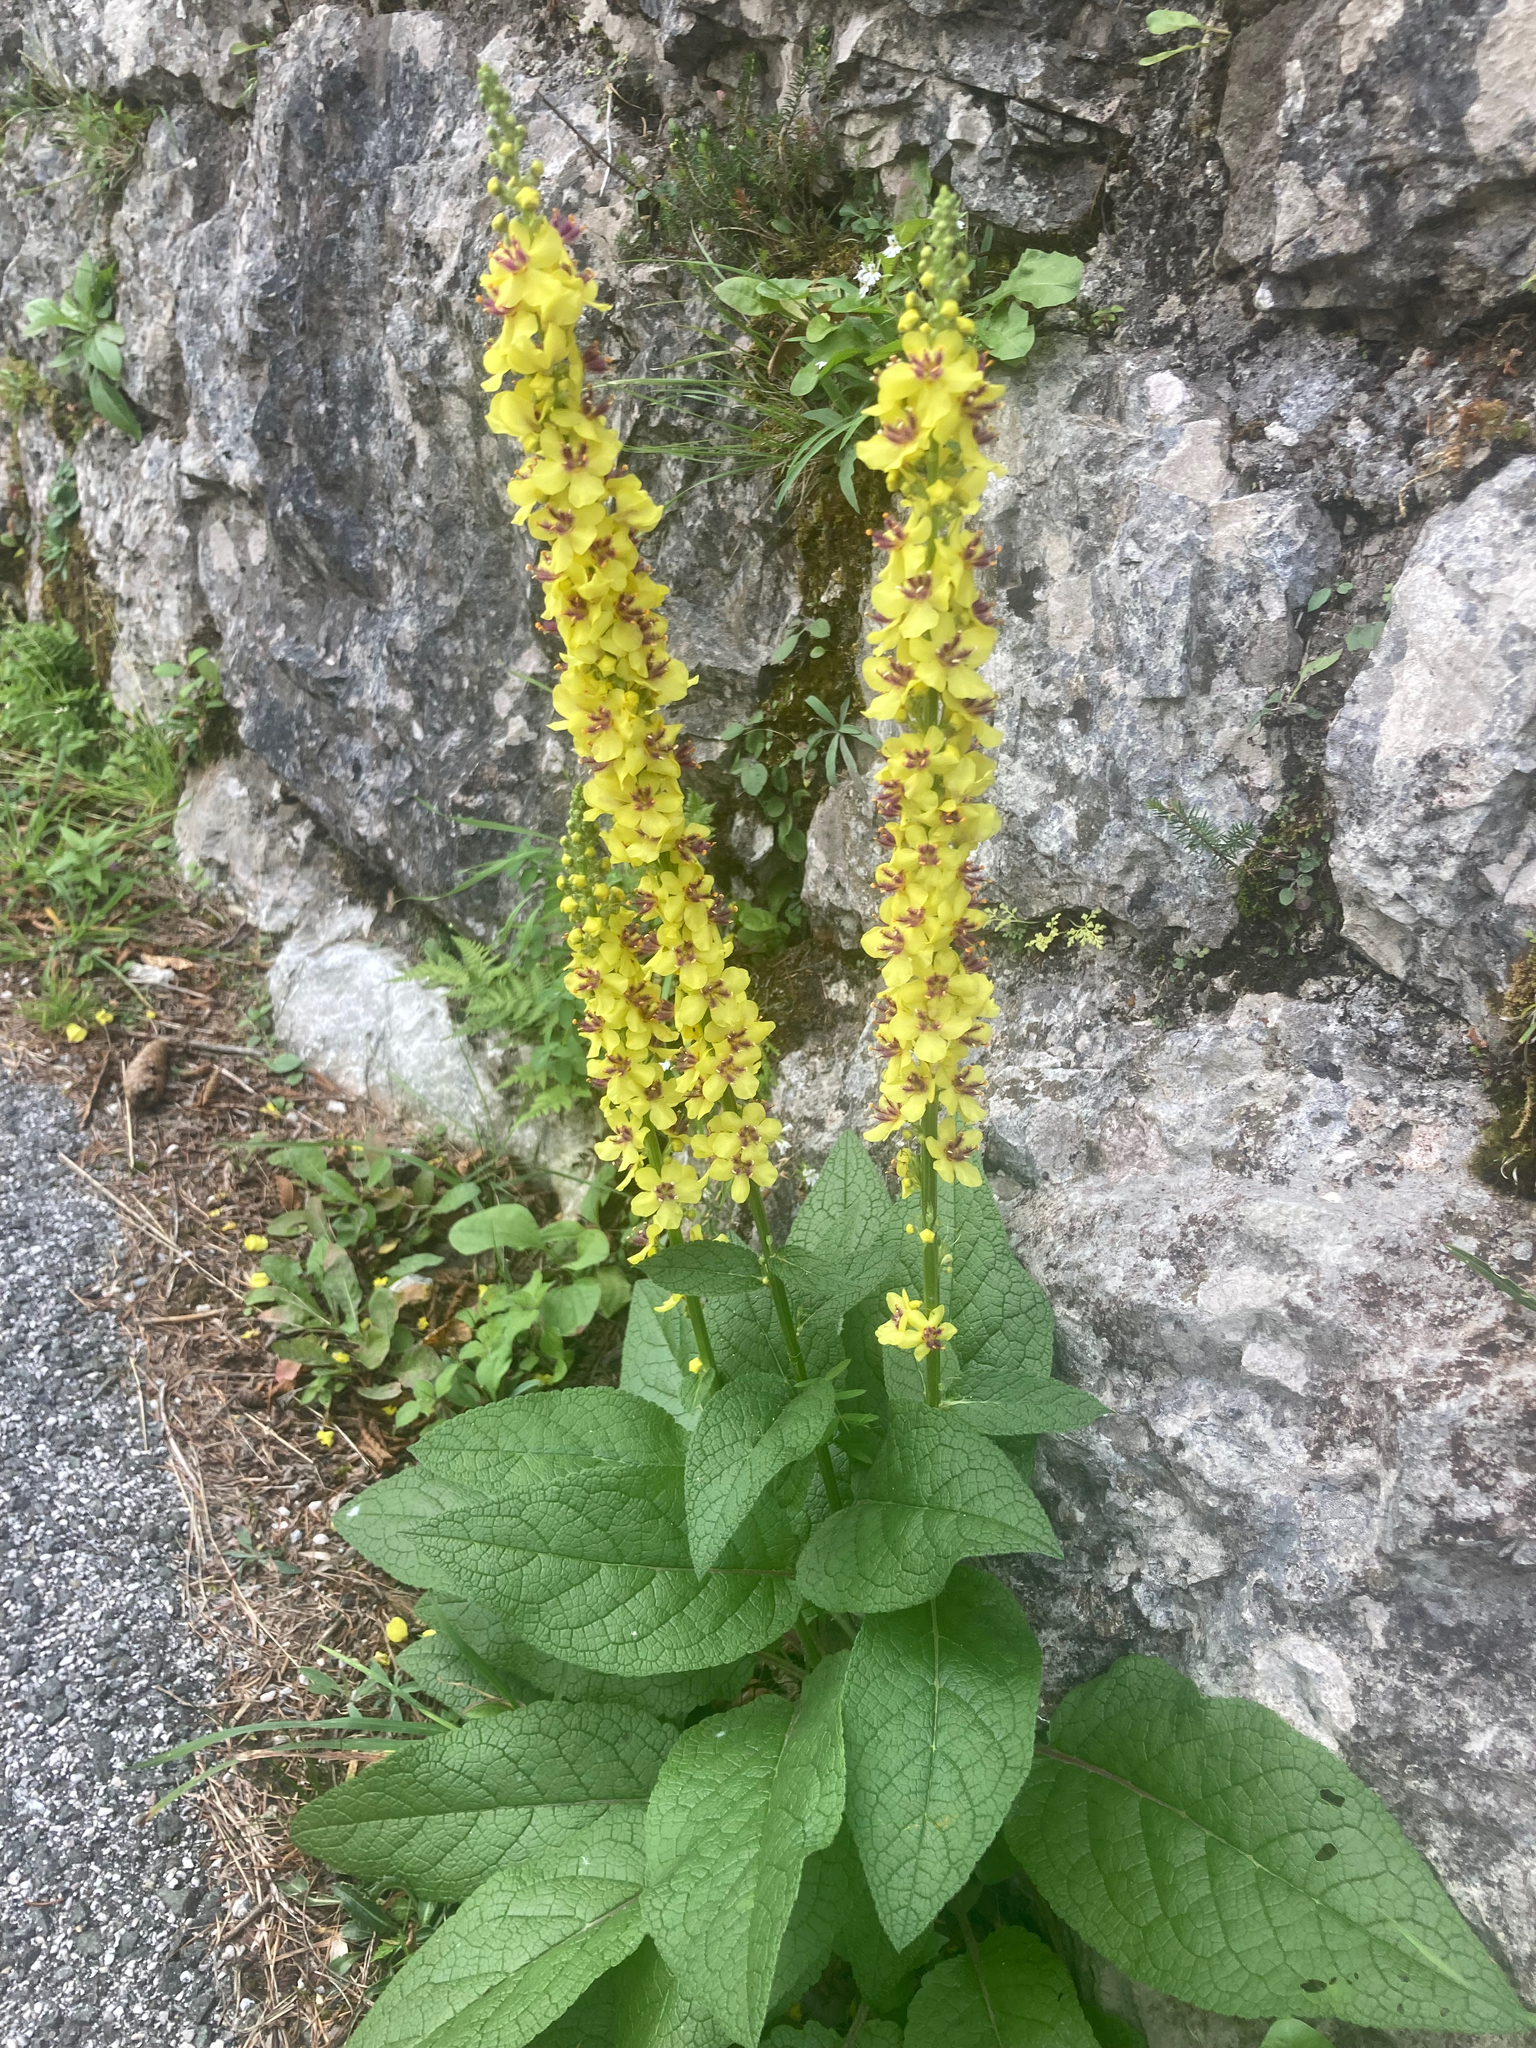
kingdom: Plantae
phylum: Tracheophyta
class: Magnoliopsida
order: Lamiales
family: Scrophulariaceae
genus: Verbascum
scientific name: Verbascum nigrum
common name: Dark mullein
